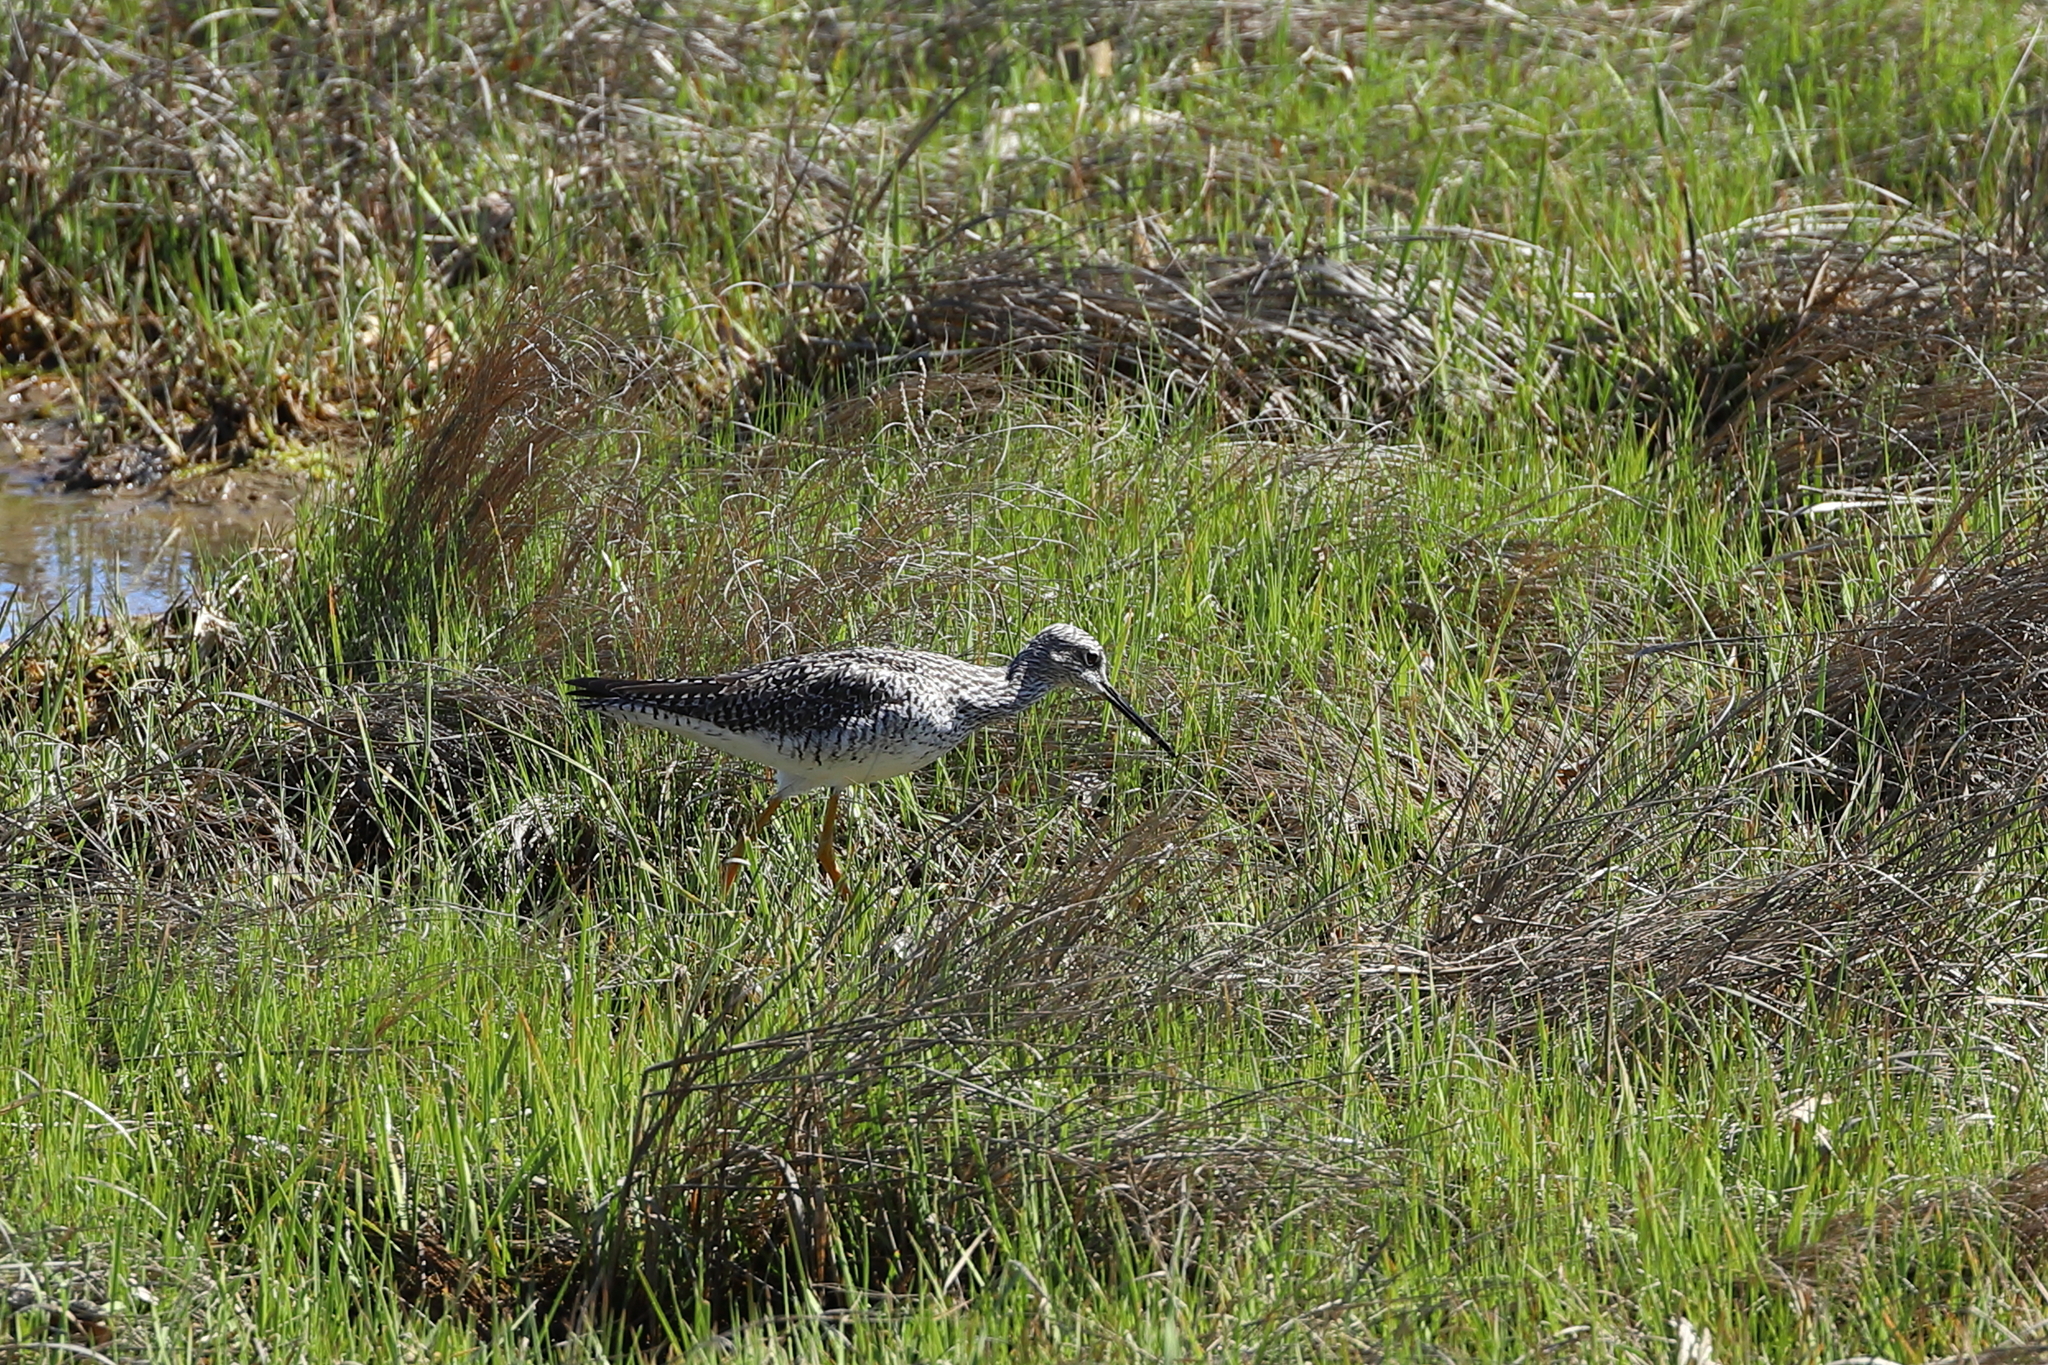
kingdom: Animalia
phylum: Chordata
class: Aves
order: Charadriiformes
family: Scolopacidae
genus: Tringa
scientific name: Tringa melanoleuca
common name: Greater yellowlegs
